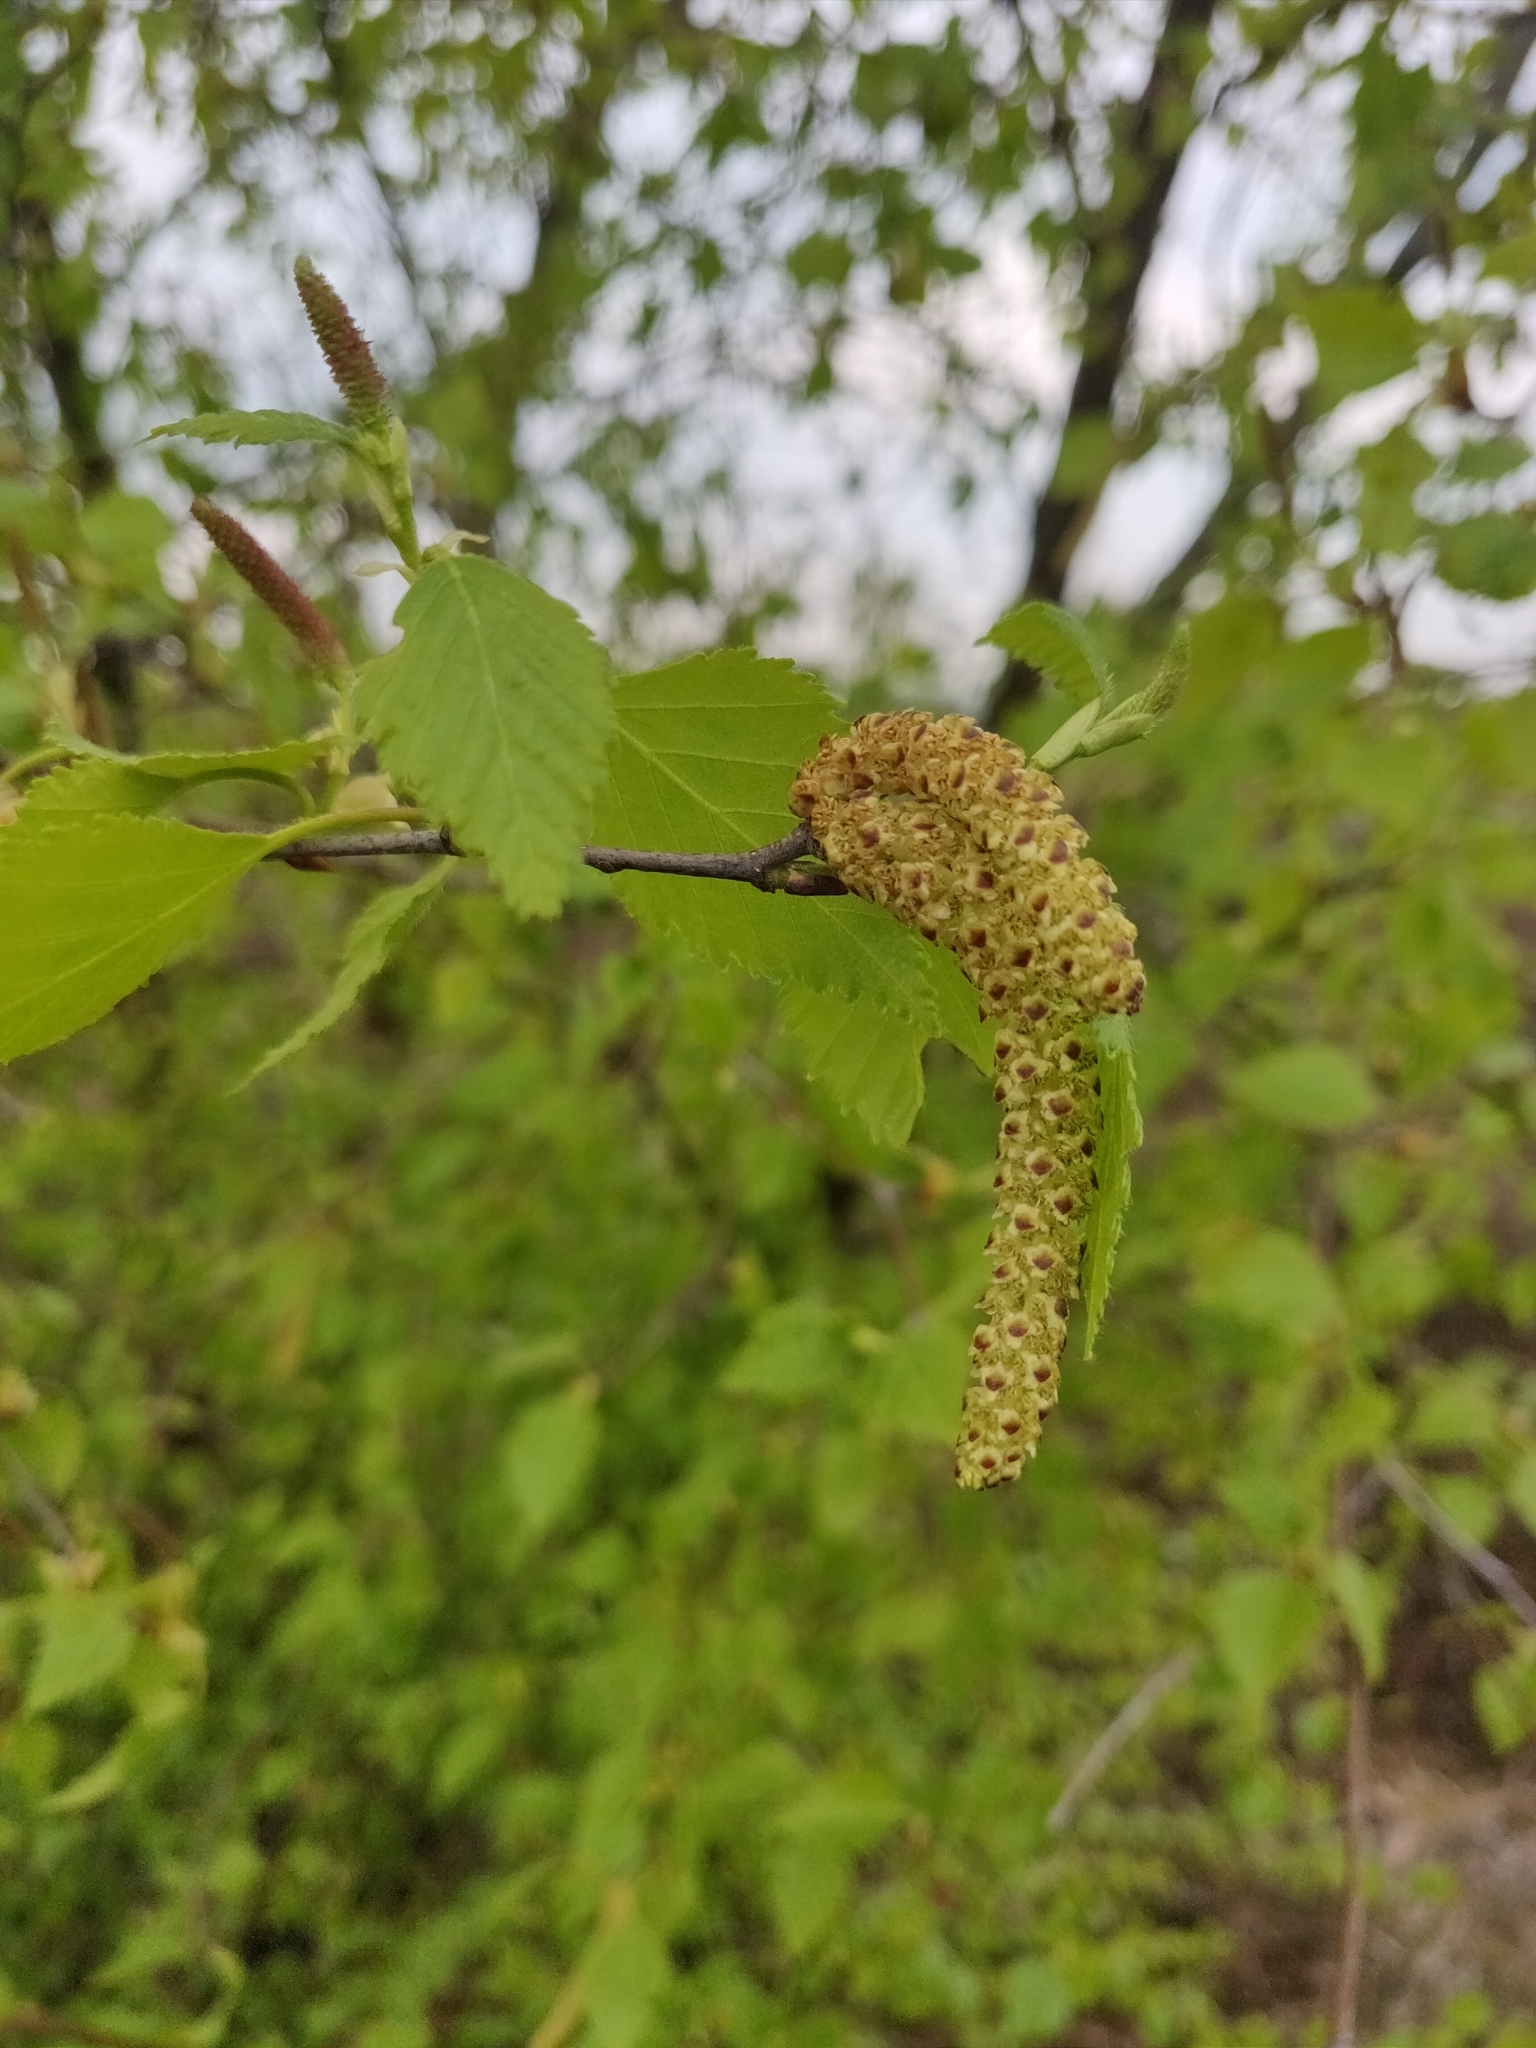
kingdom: Plantae
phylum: Tracheophyta
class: Magnoliopsida
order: Fagales
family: Betulaceae
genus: Betula
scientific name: Betula pendula
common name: Silver birch
